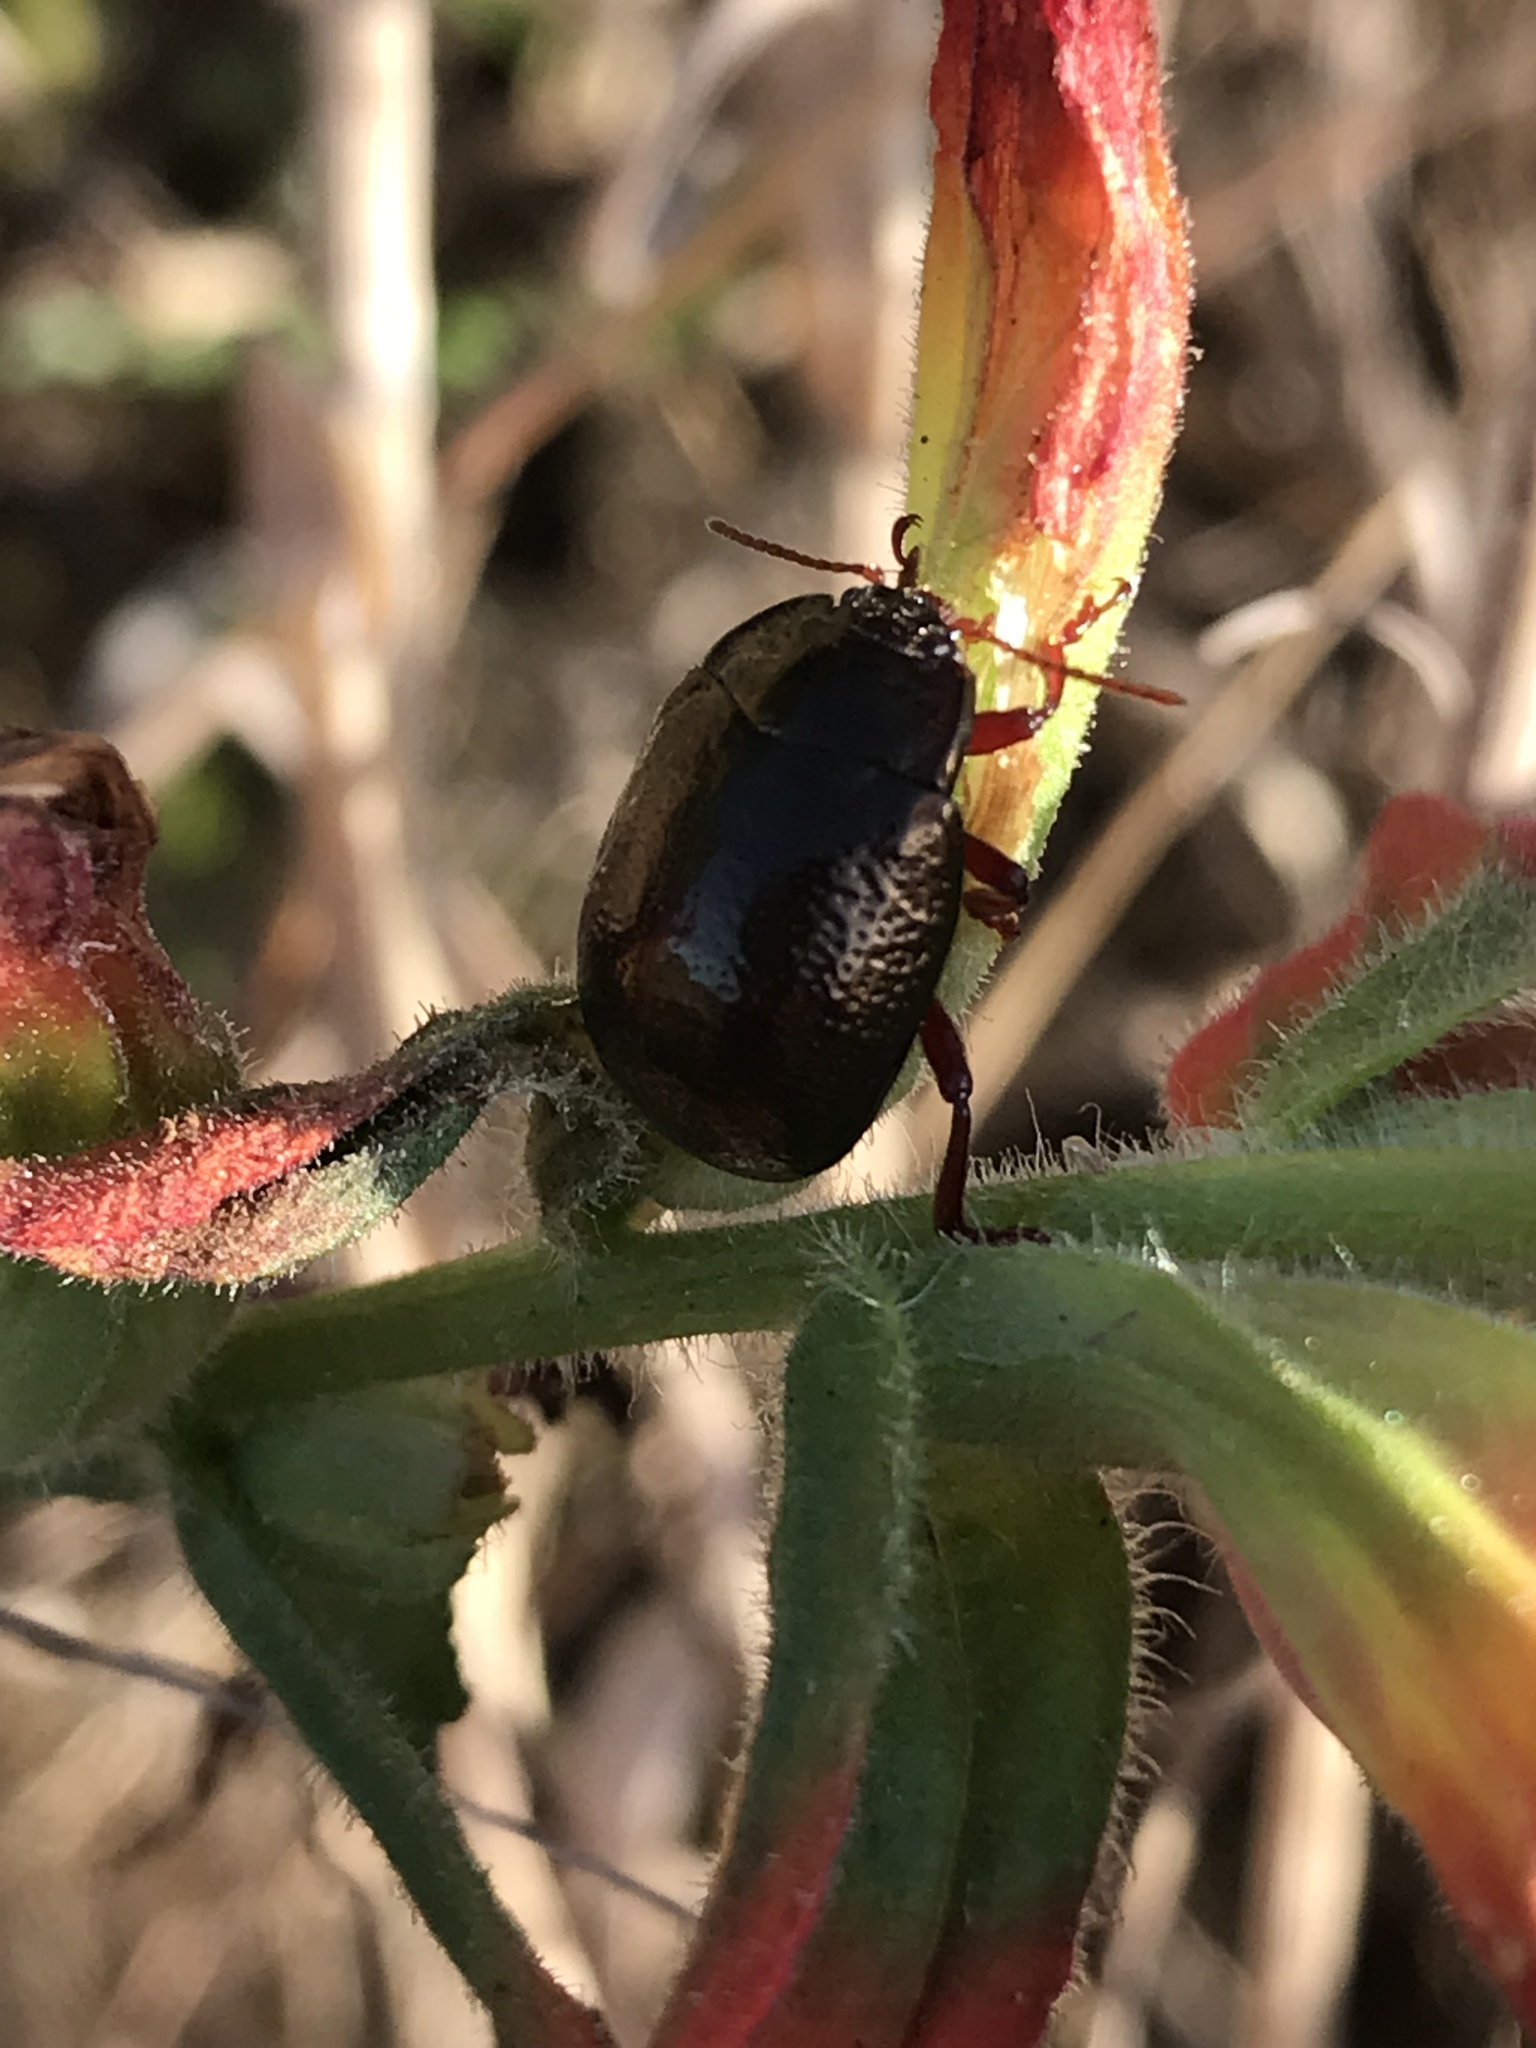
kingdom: Animalia
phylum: Arthropoda
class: Insecta
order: Coleoptera
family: Chrysomelidae
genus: Chrysolina
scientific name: Chrysolina bankii
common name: Leaf beetle
